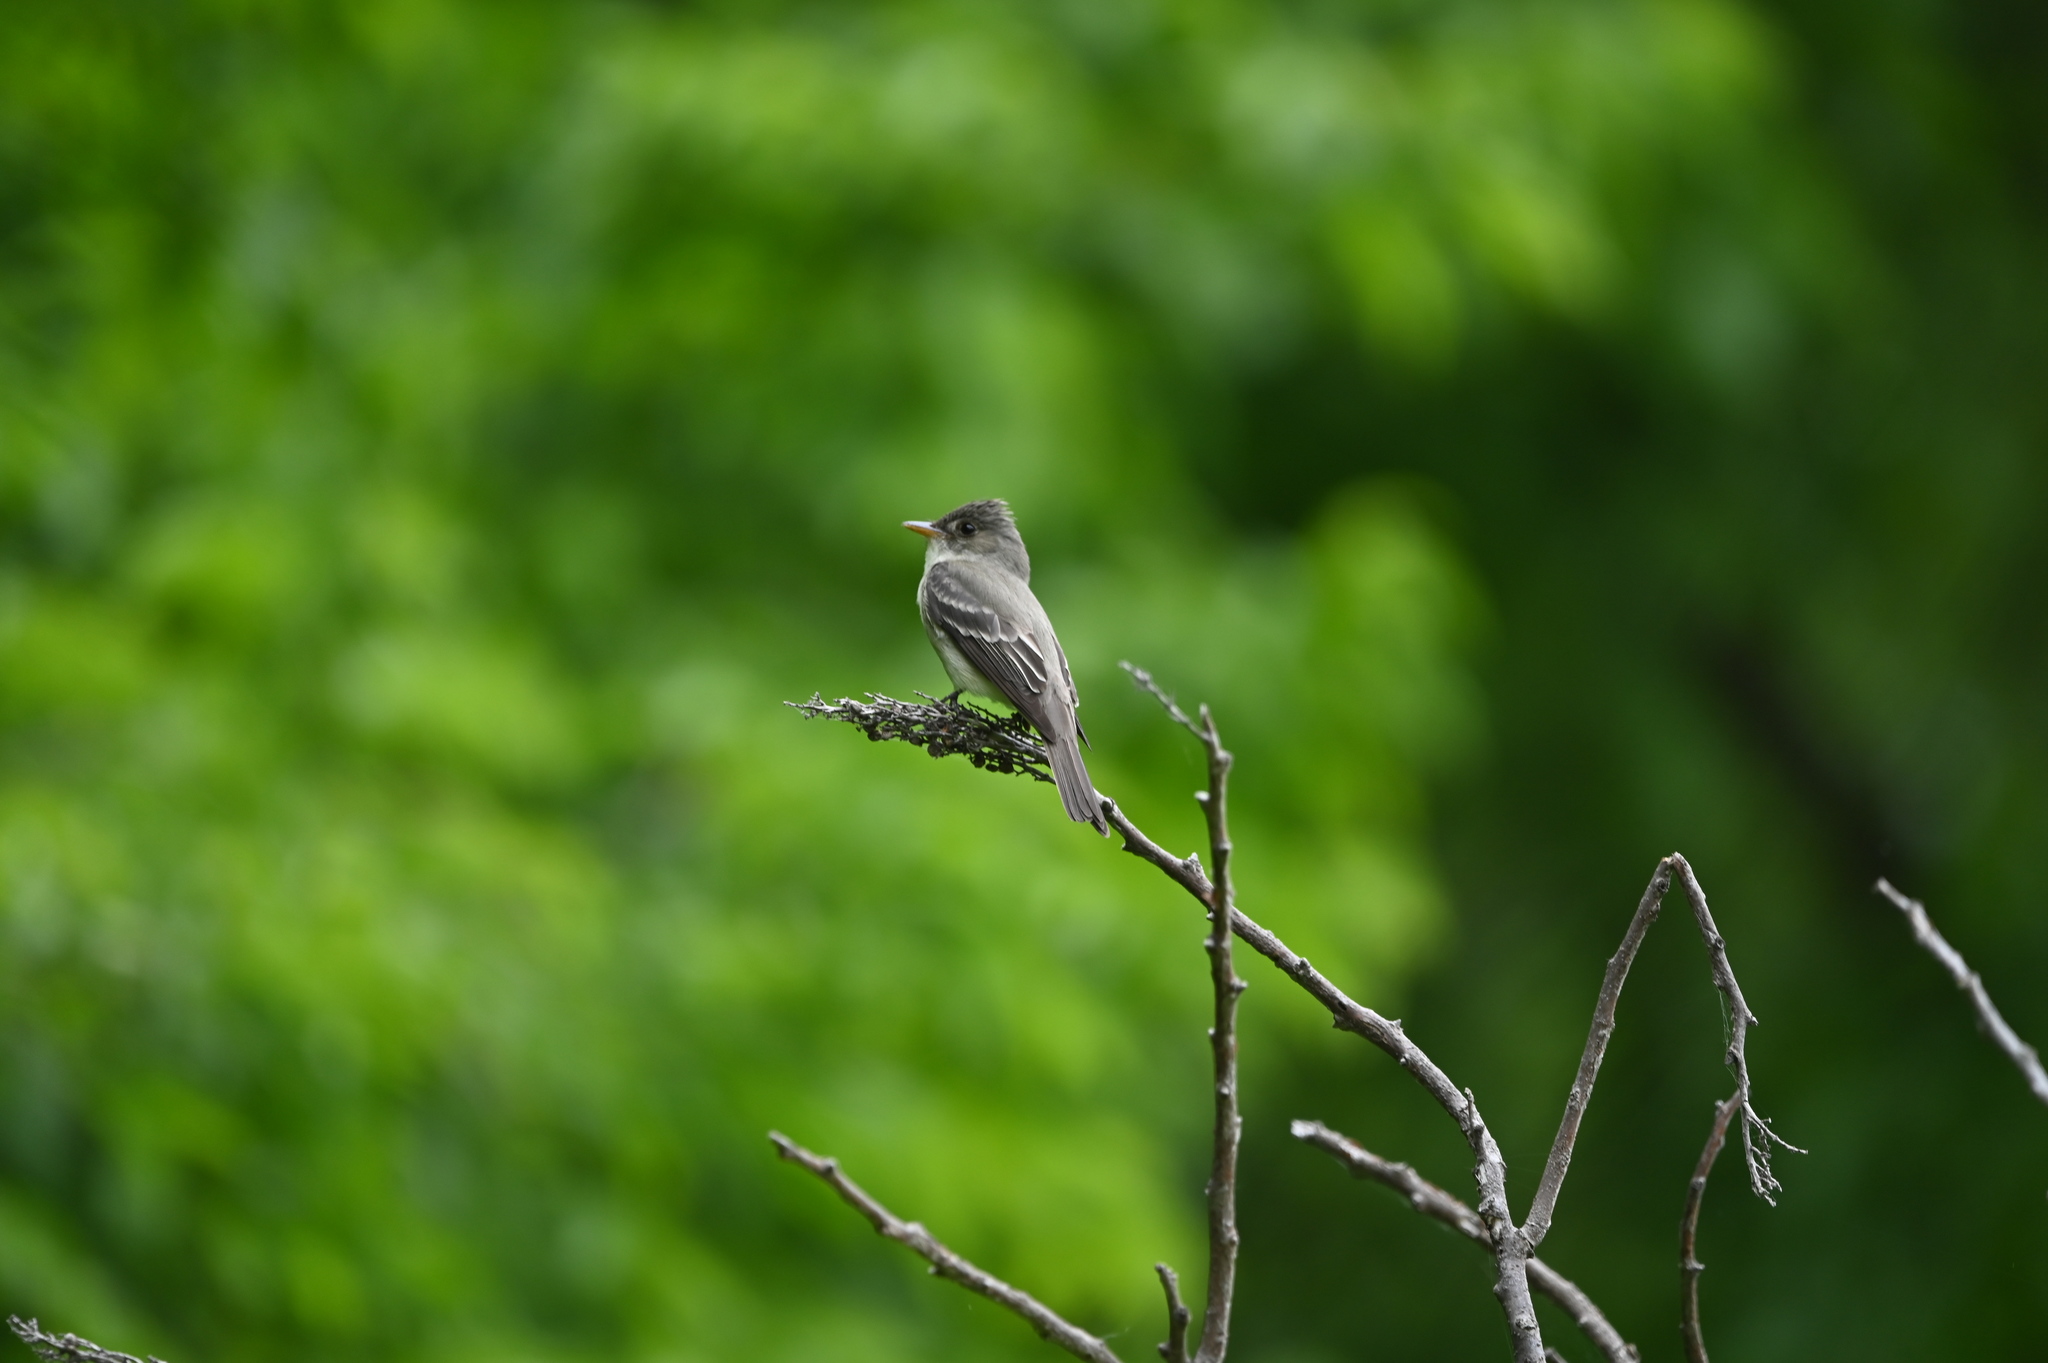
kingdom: Animalia
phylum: Chordata
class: Aves
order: Passeriformes
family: Tyrannidae
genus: Contopus
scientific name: Contopus virens
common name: Eastern wood-pewee
